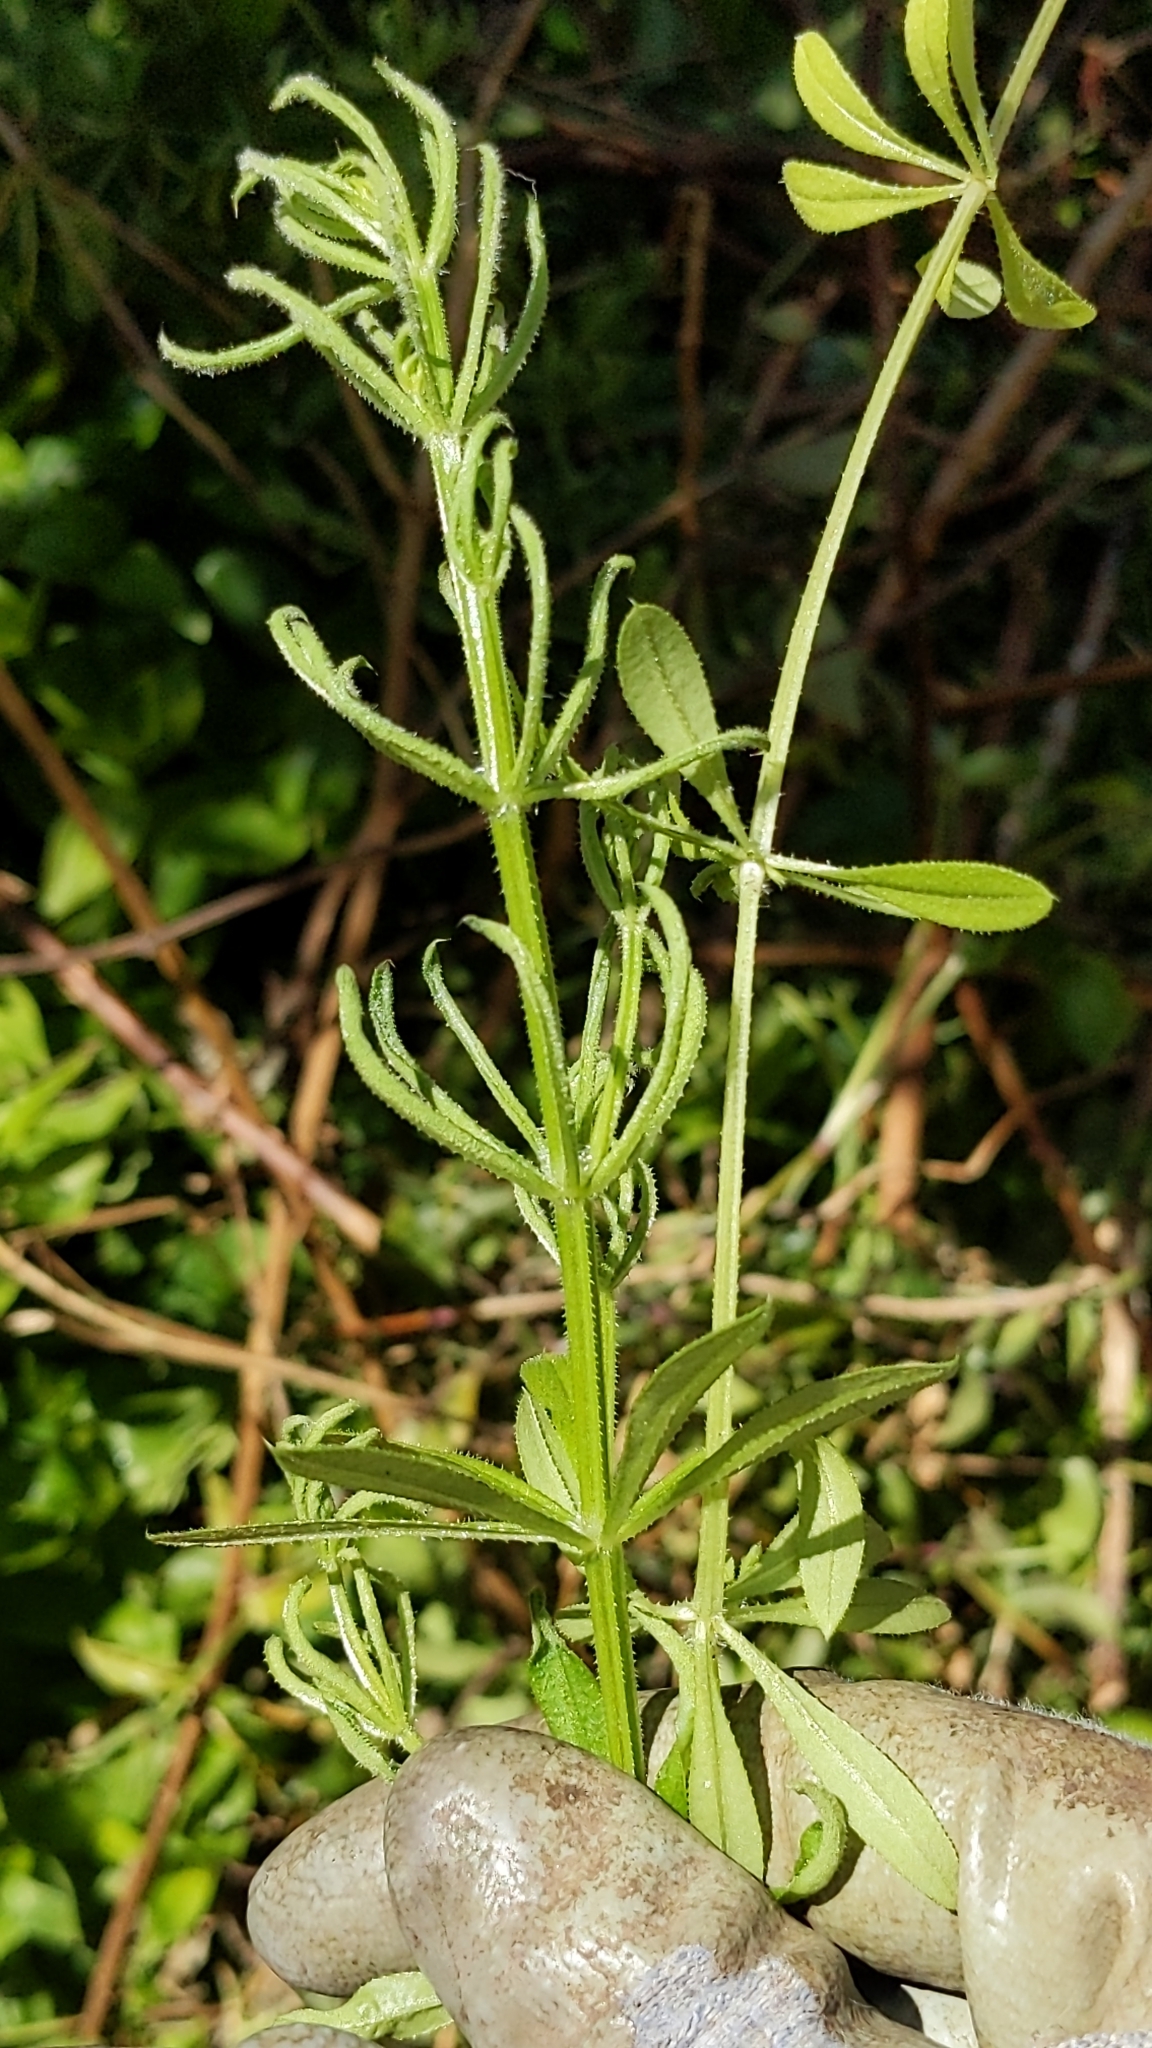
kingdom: Plantae
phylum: Tracheophyta
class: Magnoliopsida
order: Gentianales
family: Rubiaceae
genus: Galium
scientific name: Galium aparine
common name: Cleavers
